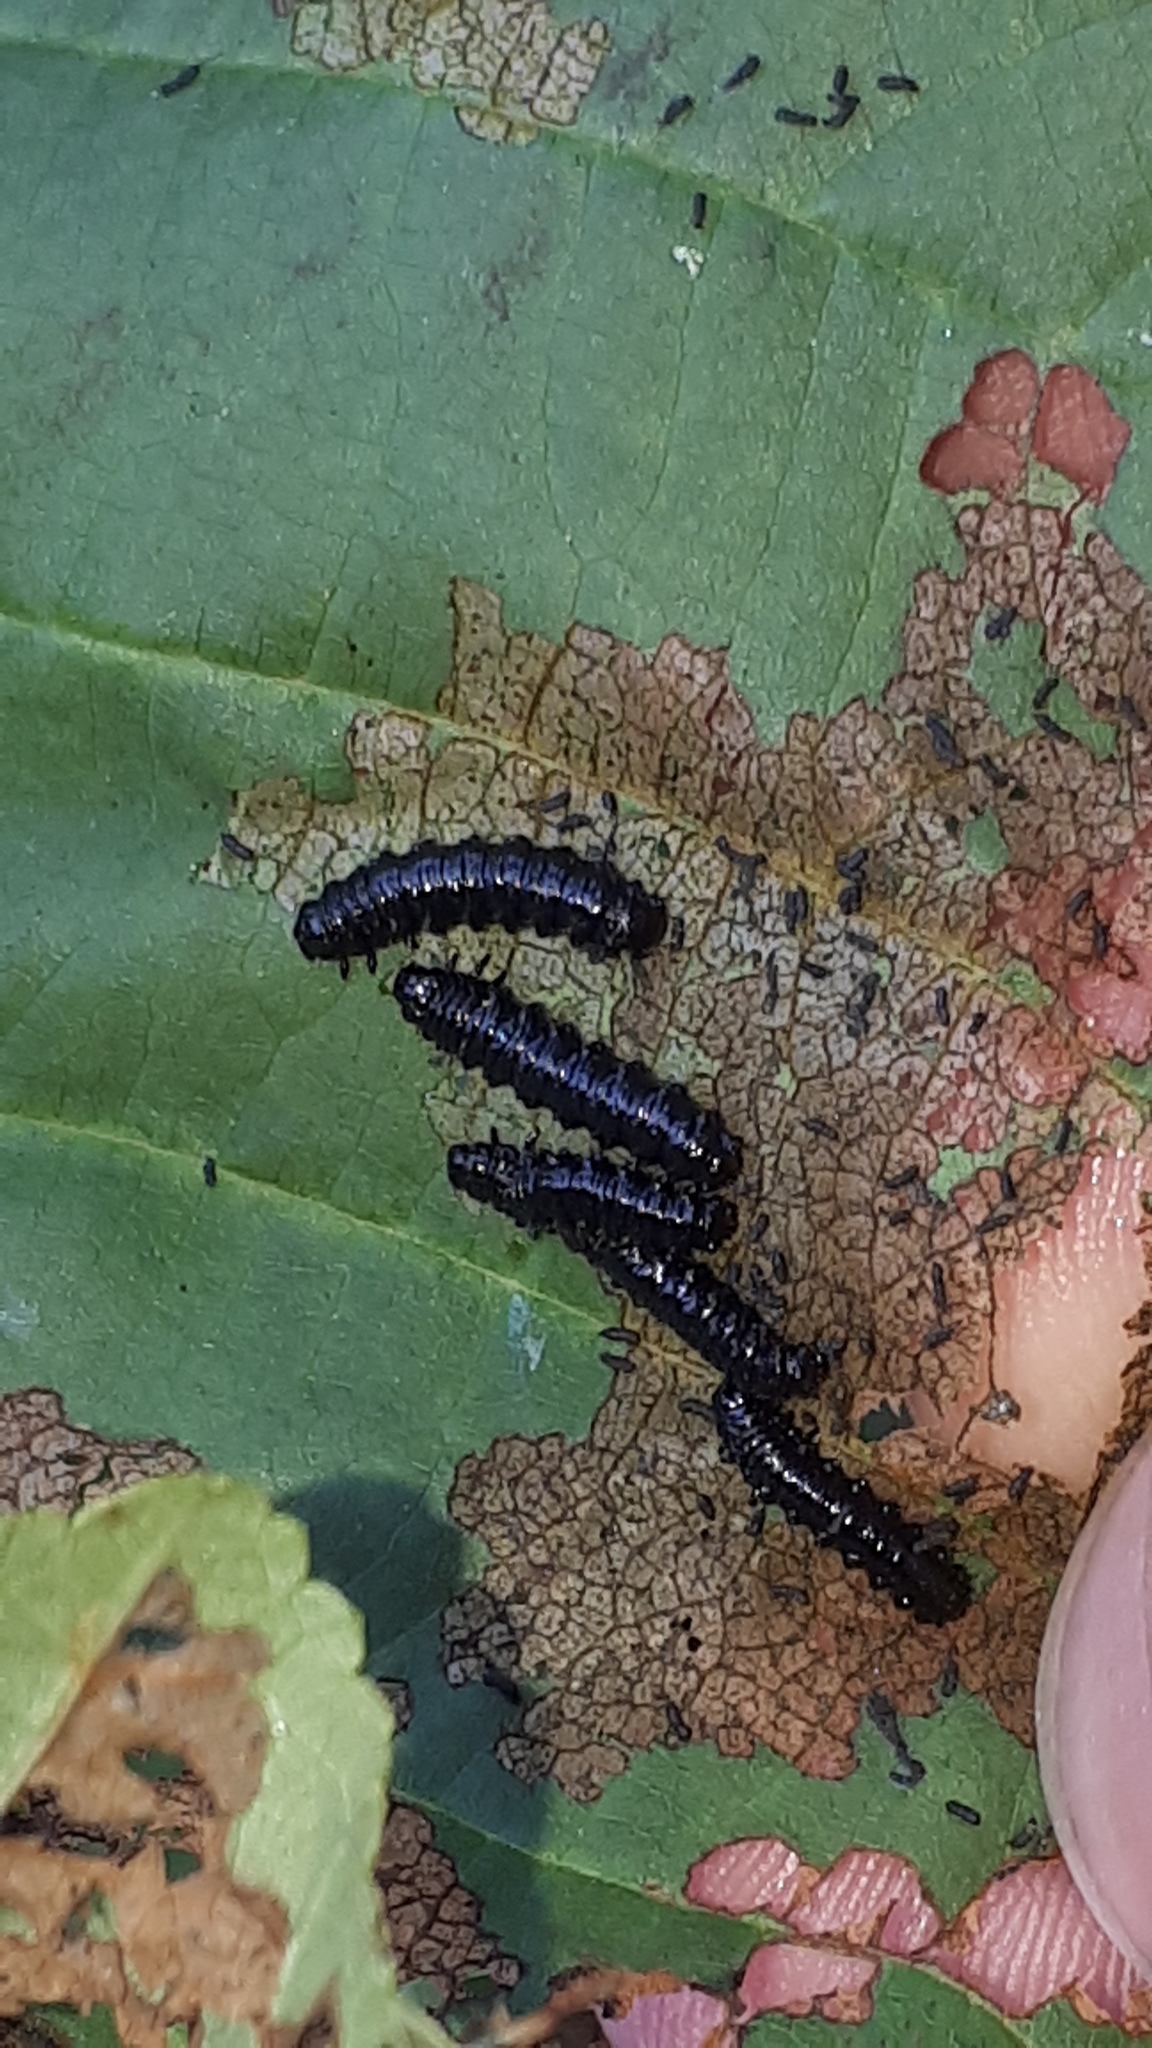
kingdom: Animalia
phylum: Arthropoda
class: Insecta
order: Coleoptera
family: Chrysomelidae
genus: Agelastica
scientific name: Agelastica alni
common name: Alder leaf beetle
